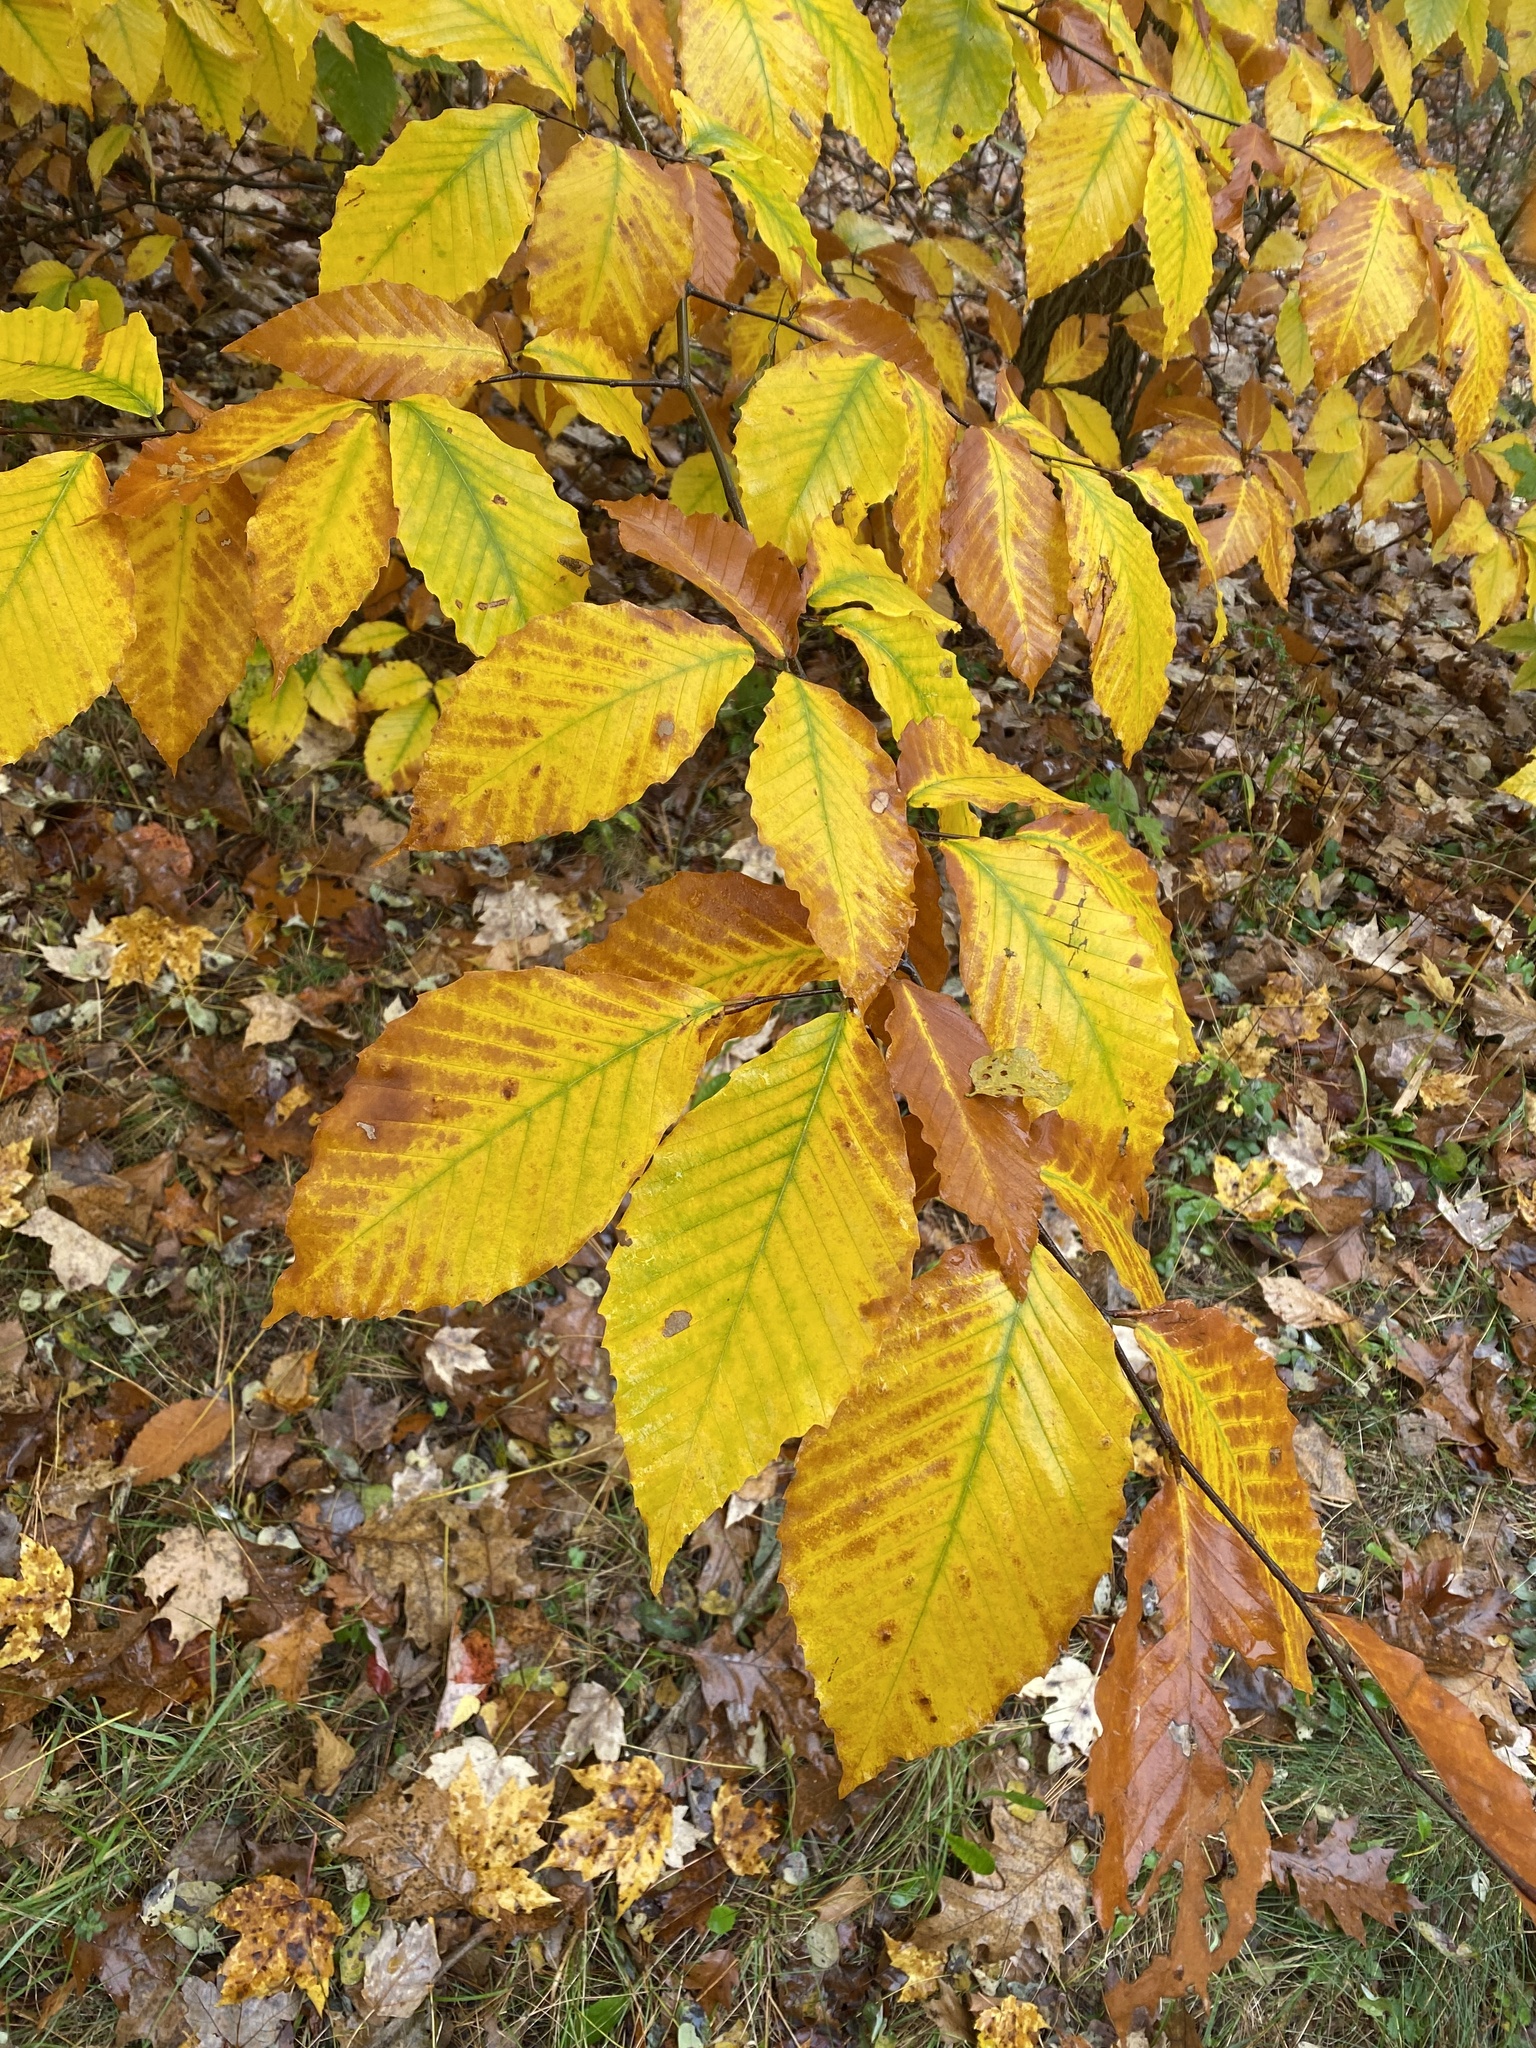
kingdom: Plantae
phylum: Tracheophyta
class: Magnoliopsida
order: Fagales
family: Fagaceae
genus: Fagus
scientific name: Fagus grandifolia
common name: American beech
